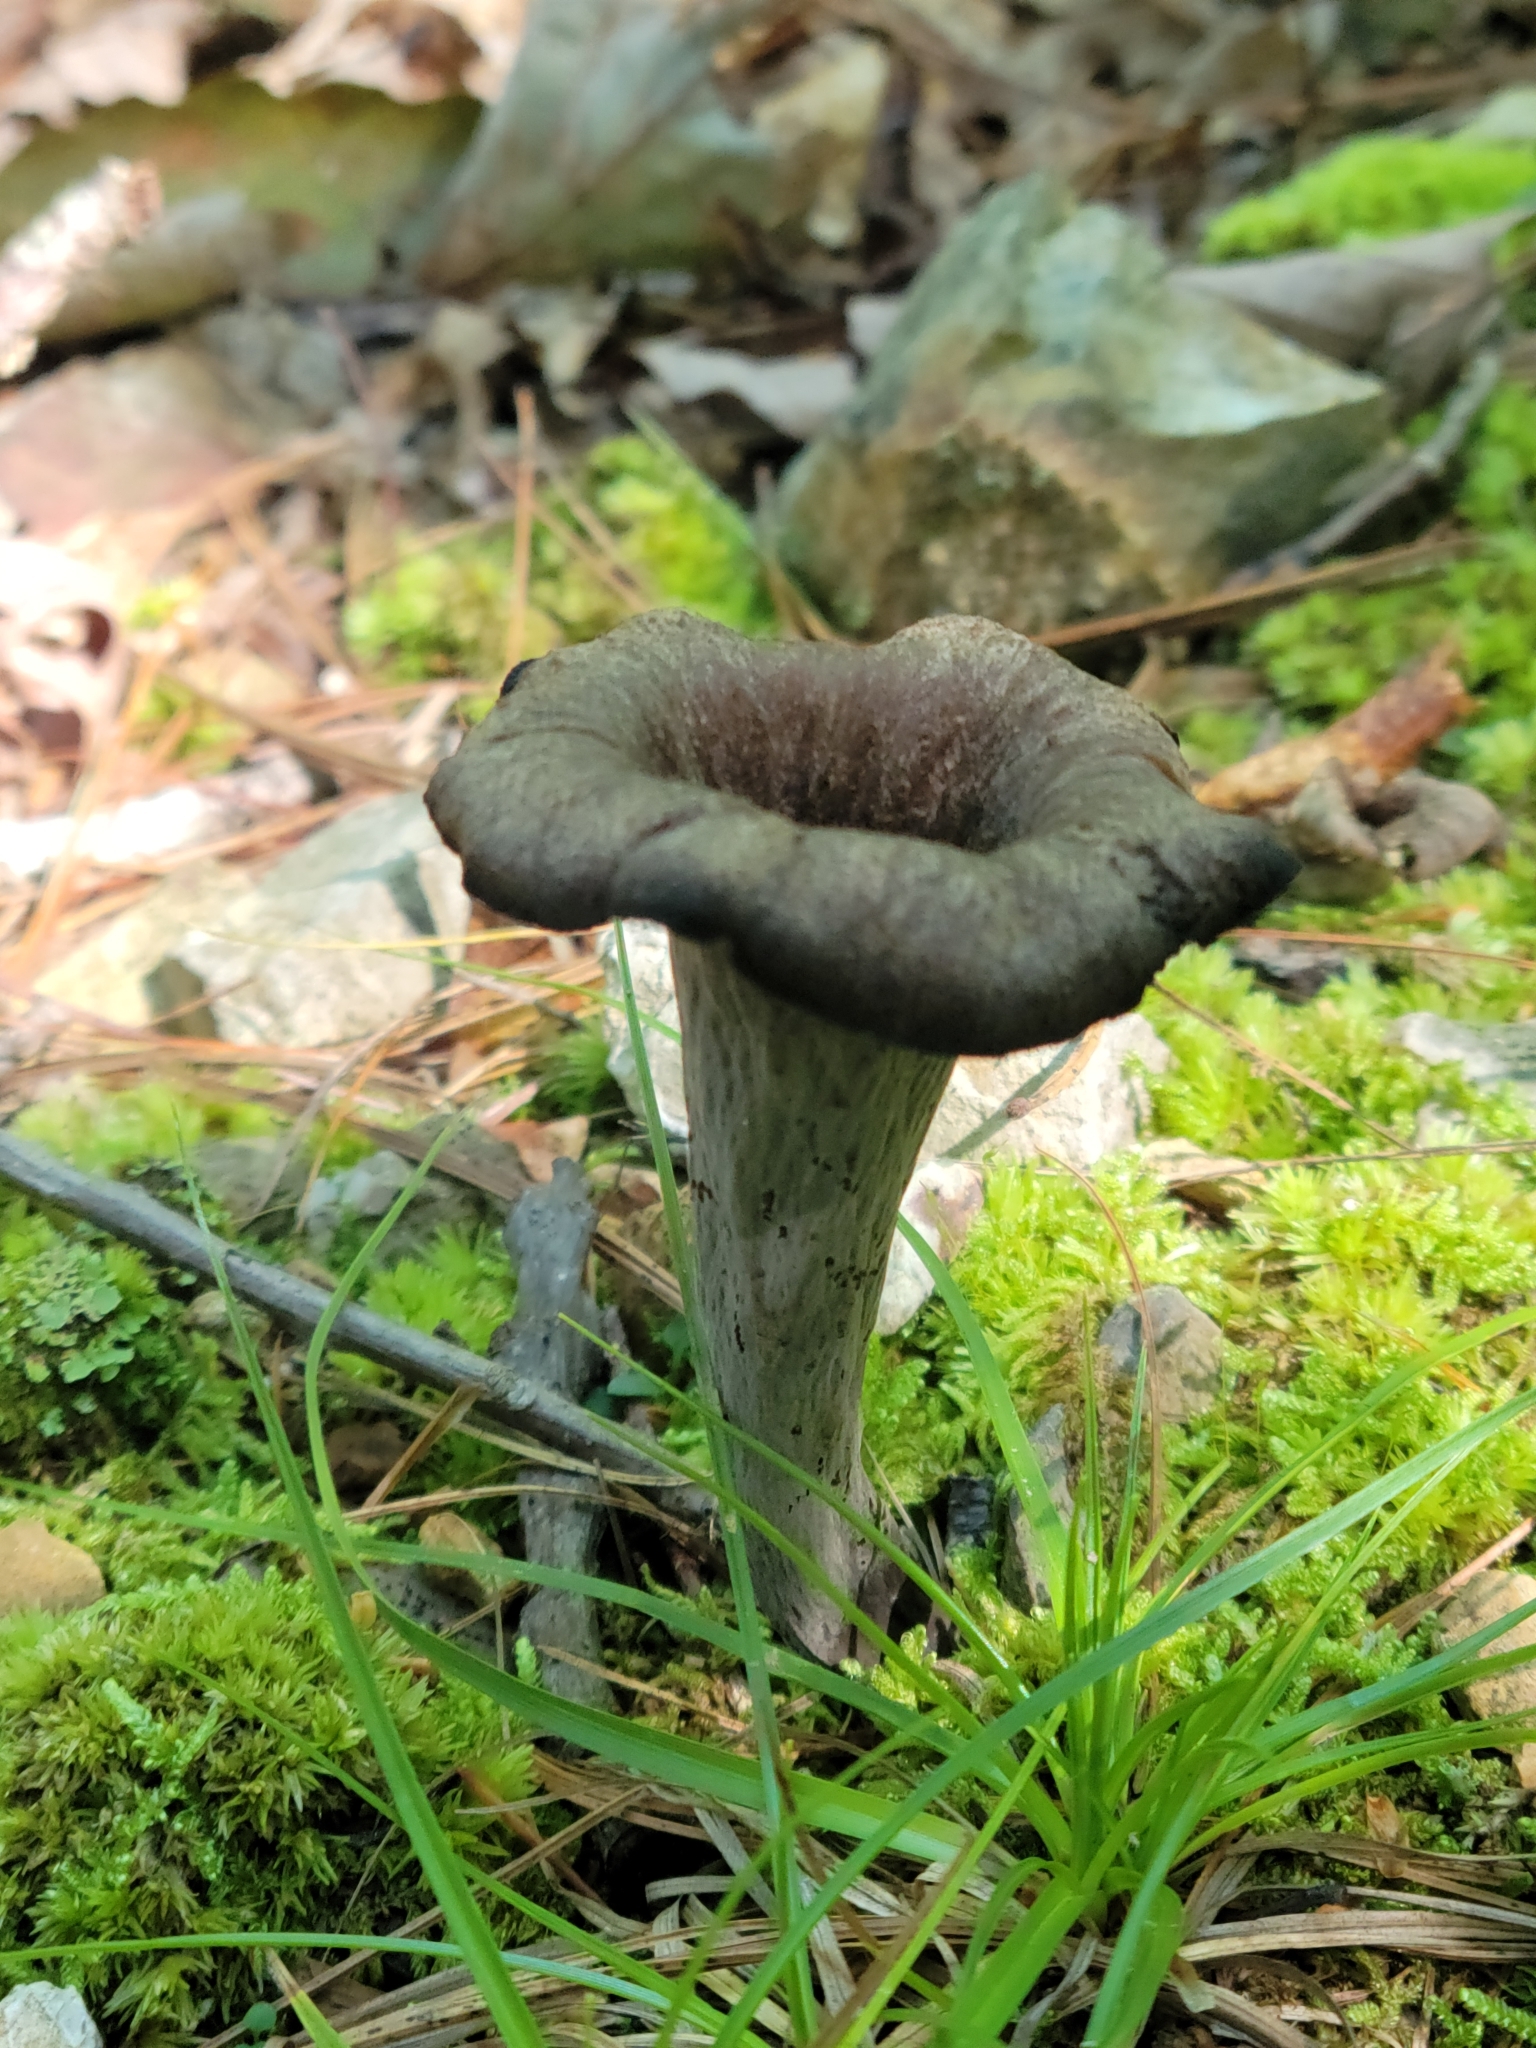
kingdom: Fungi
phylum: Basidiomycota
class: Agaricomycetes
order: Cantharellales
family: Hydnaceae
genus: Craterellus
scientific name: Craterellus cornucopioides
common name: Horn of plenty
